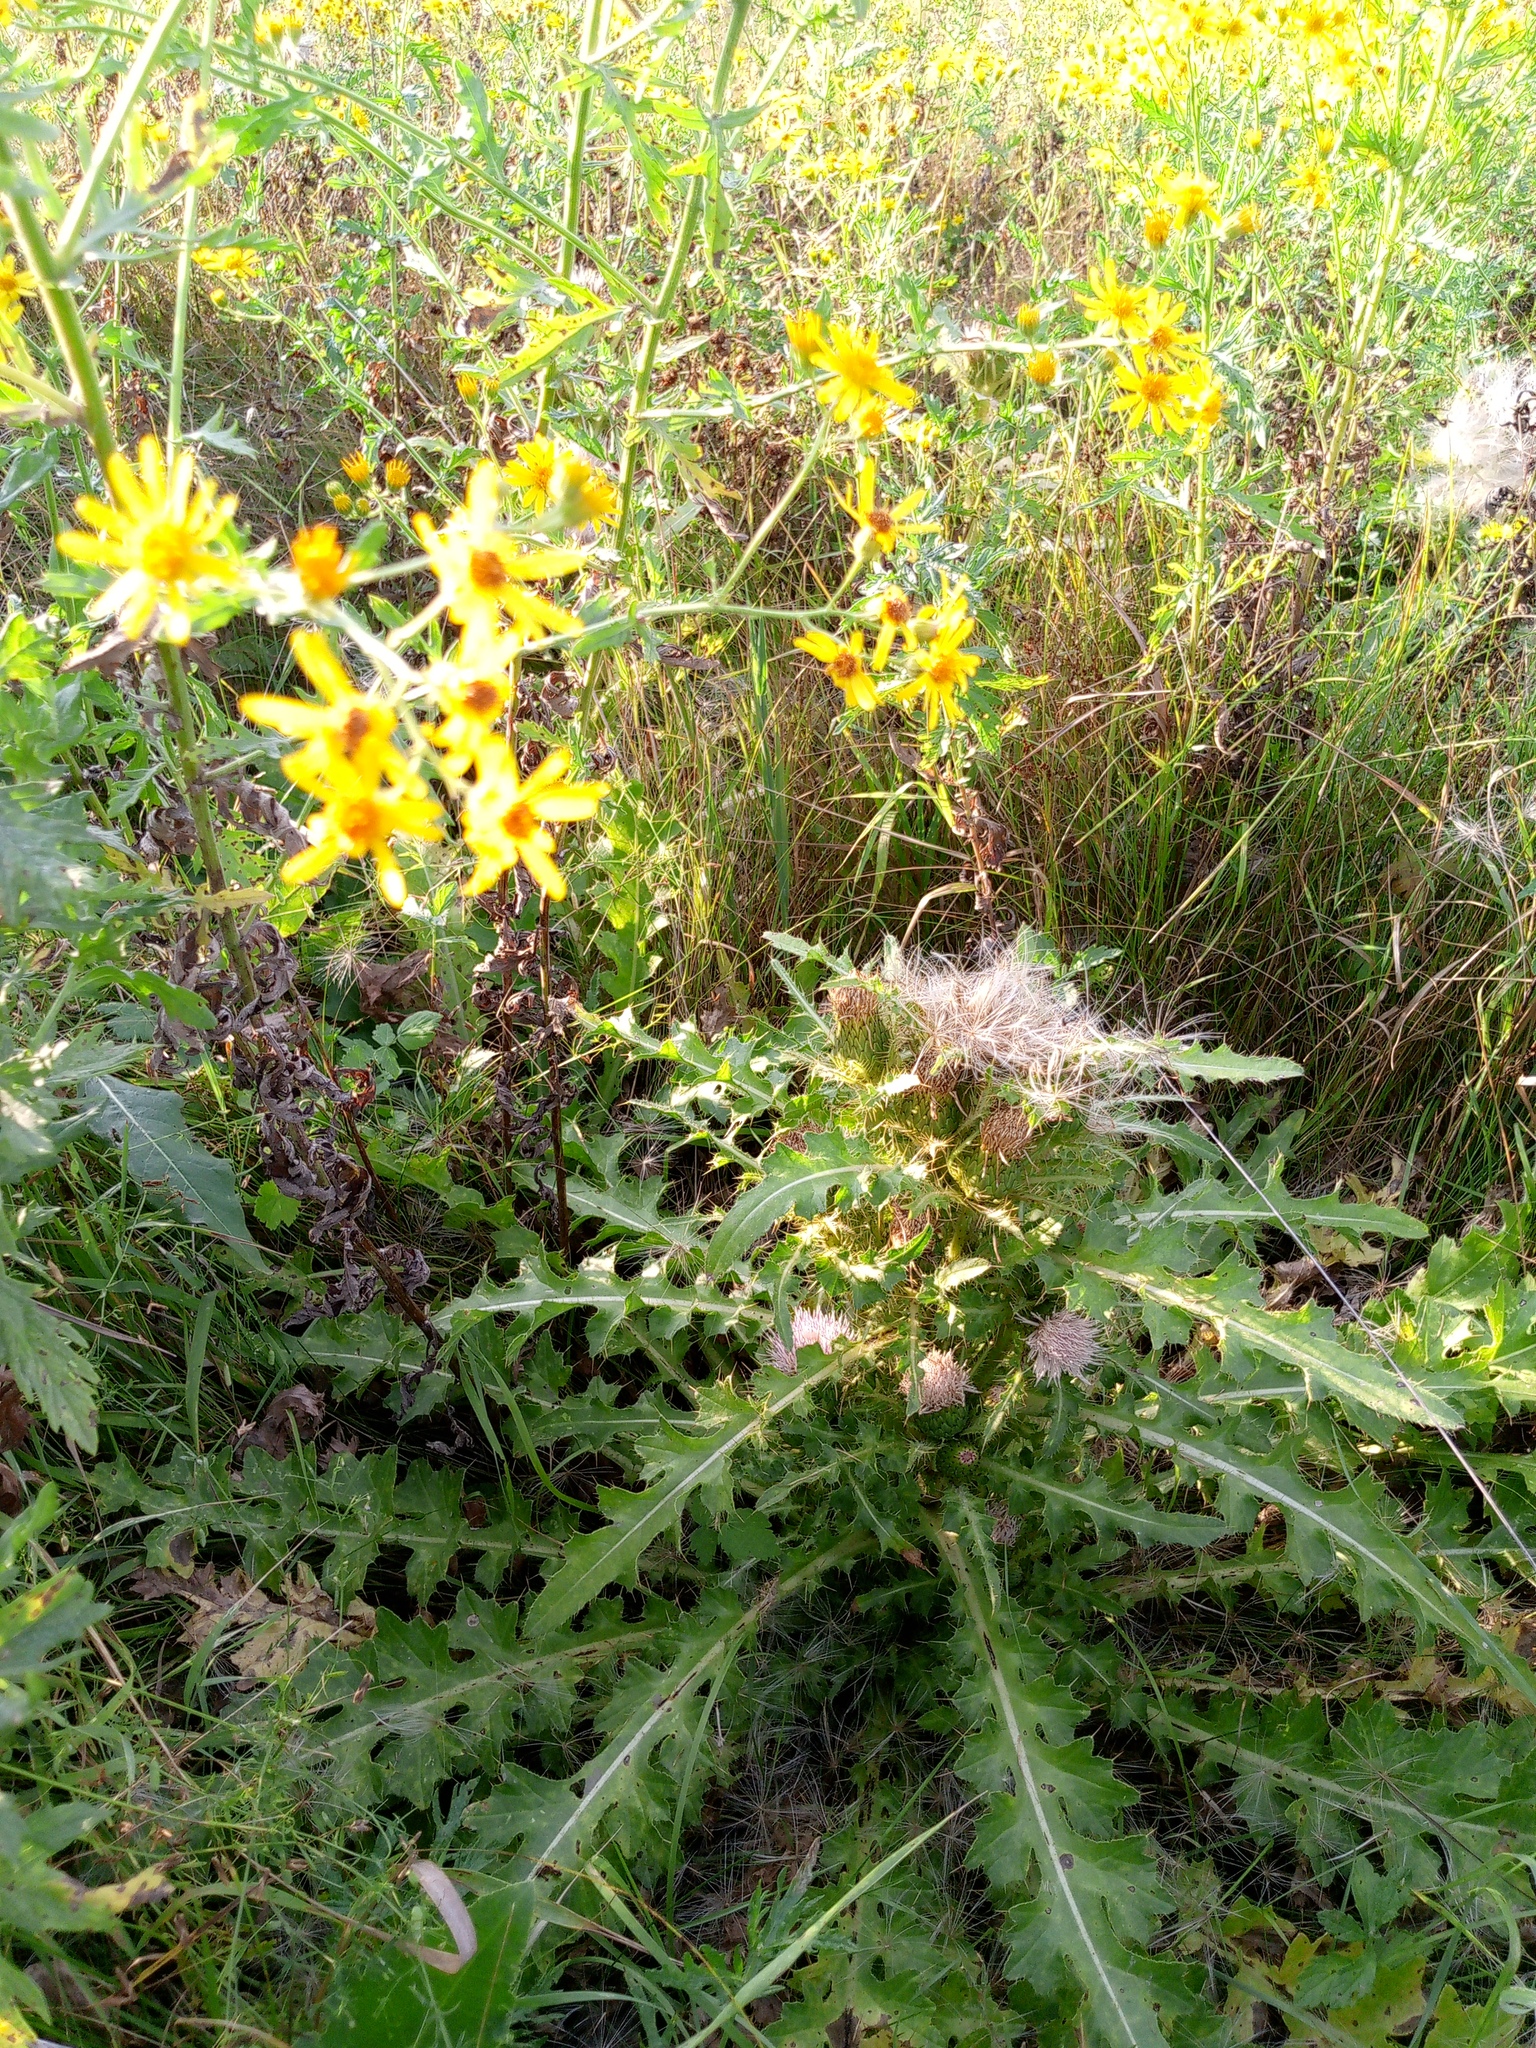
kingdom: Plantae
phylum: Tracheophyta
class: Magnoliopsida
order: Asterales
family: Asteraceae
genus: Cirsium
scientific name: Cirsium esculentum
